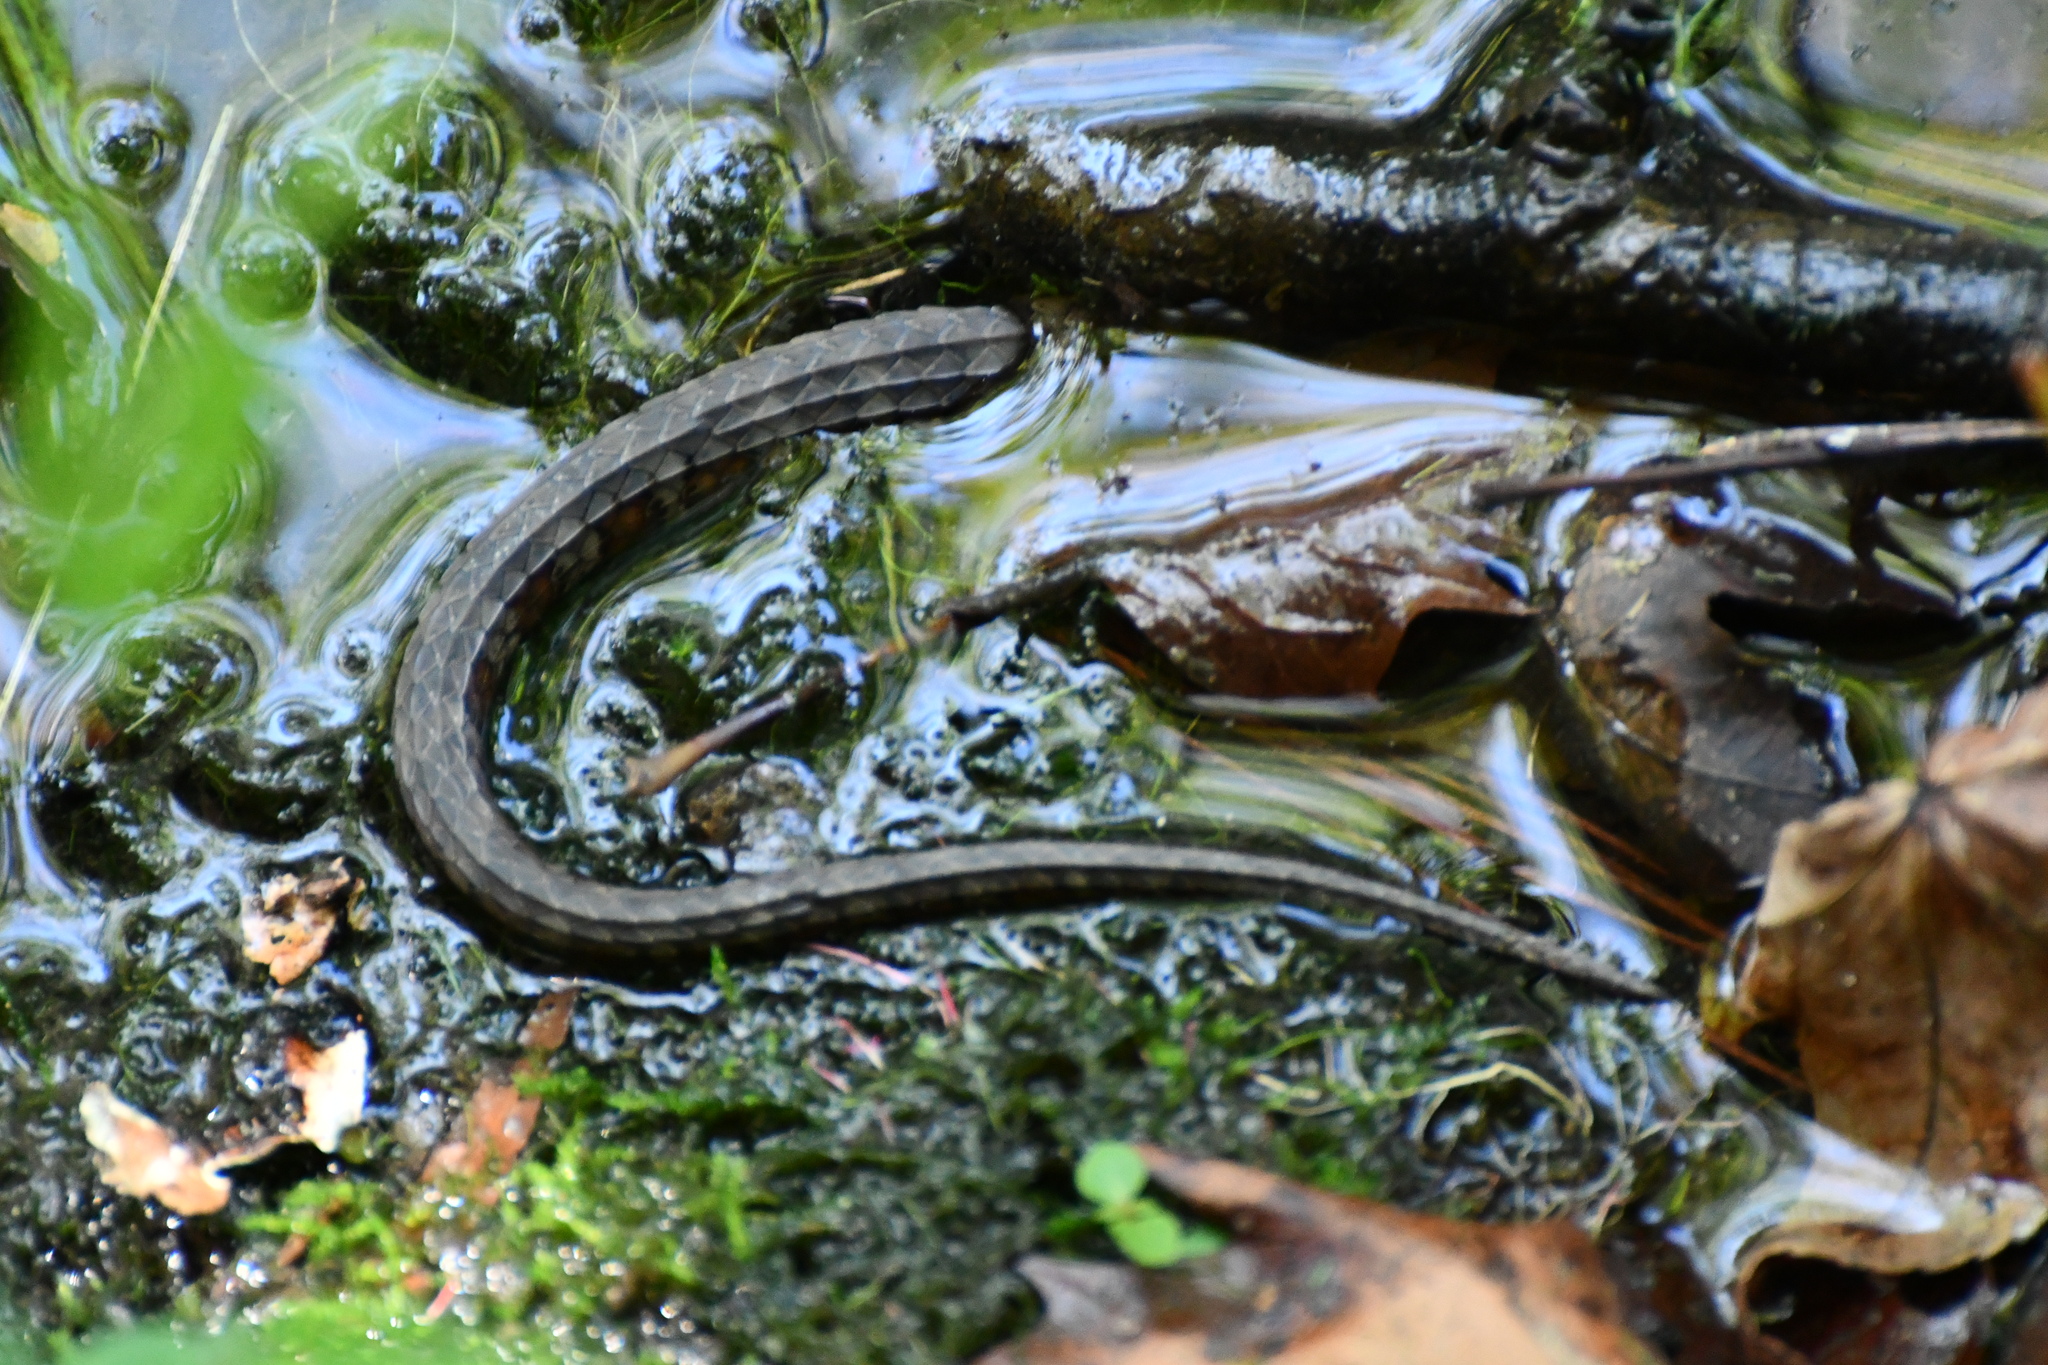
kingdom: Animalia
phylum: Chordata
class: Squamata
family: Colubridae
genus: Nerodia
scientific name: Nerodia sipedon
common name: Northern water snake
